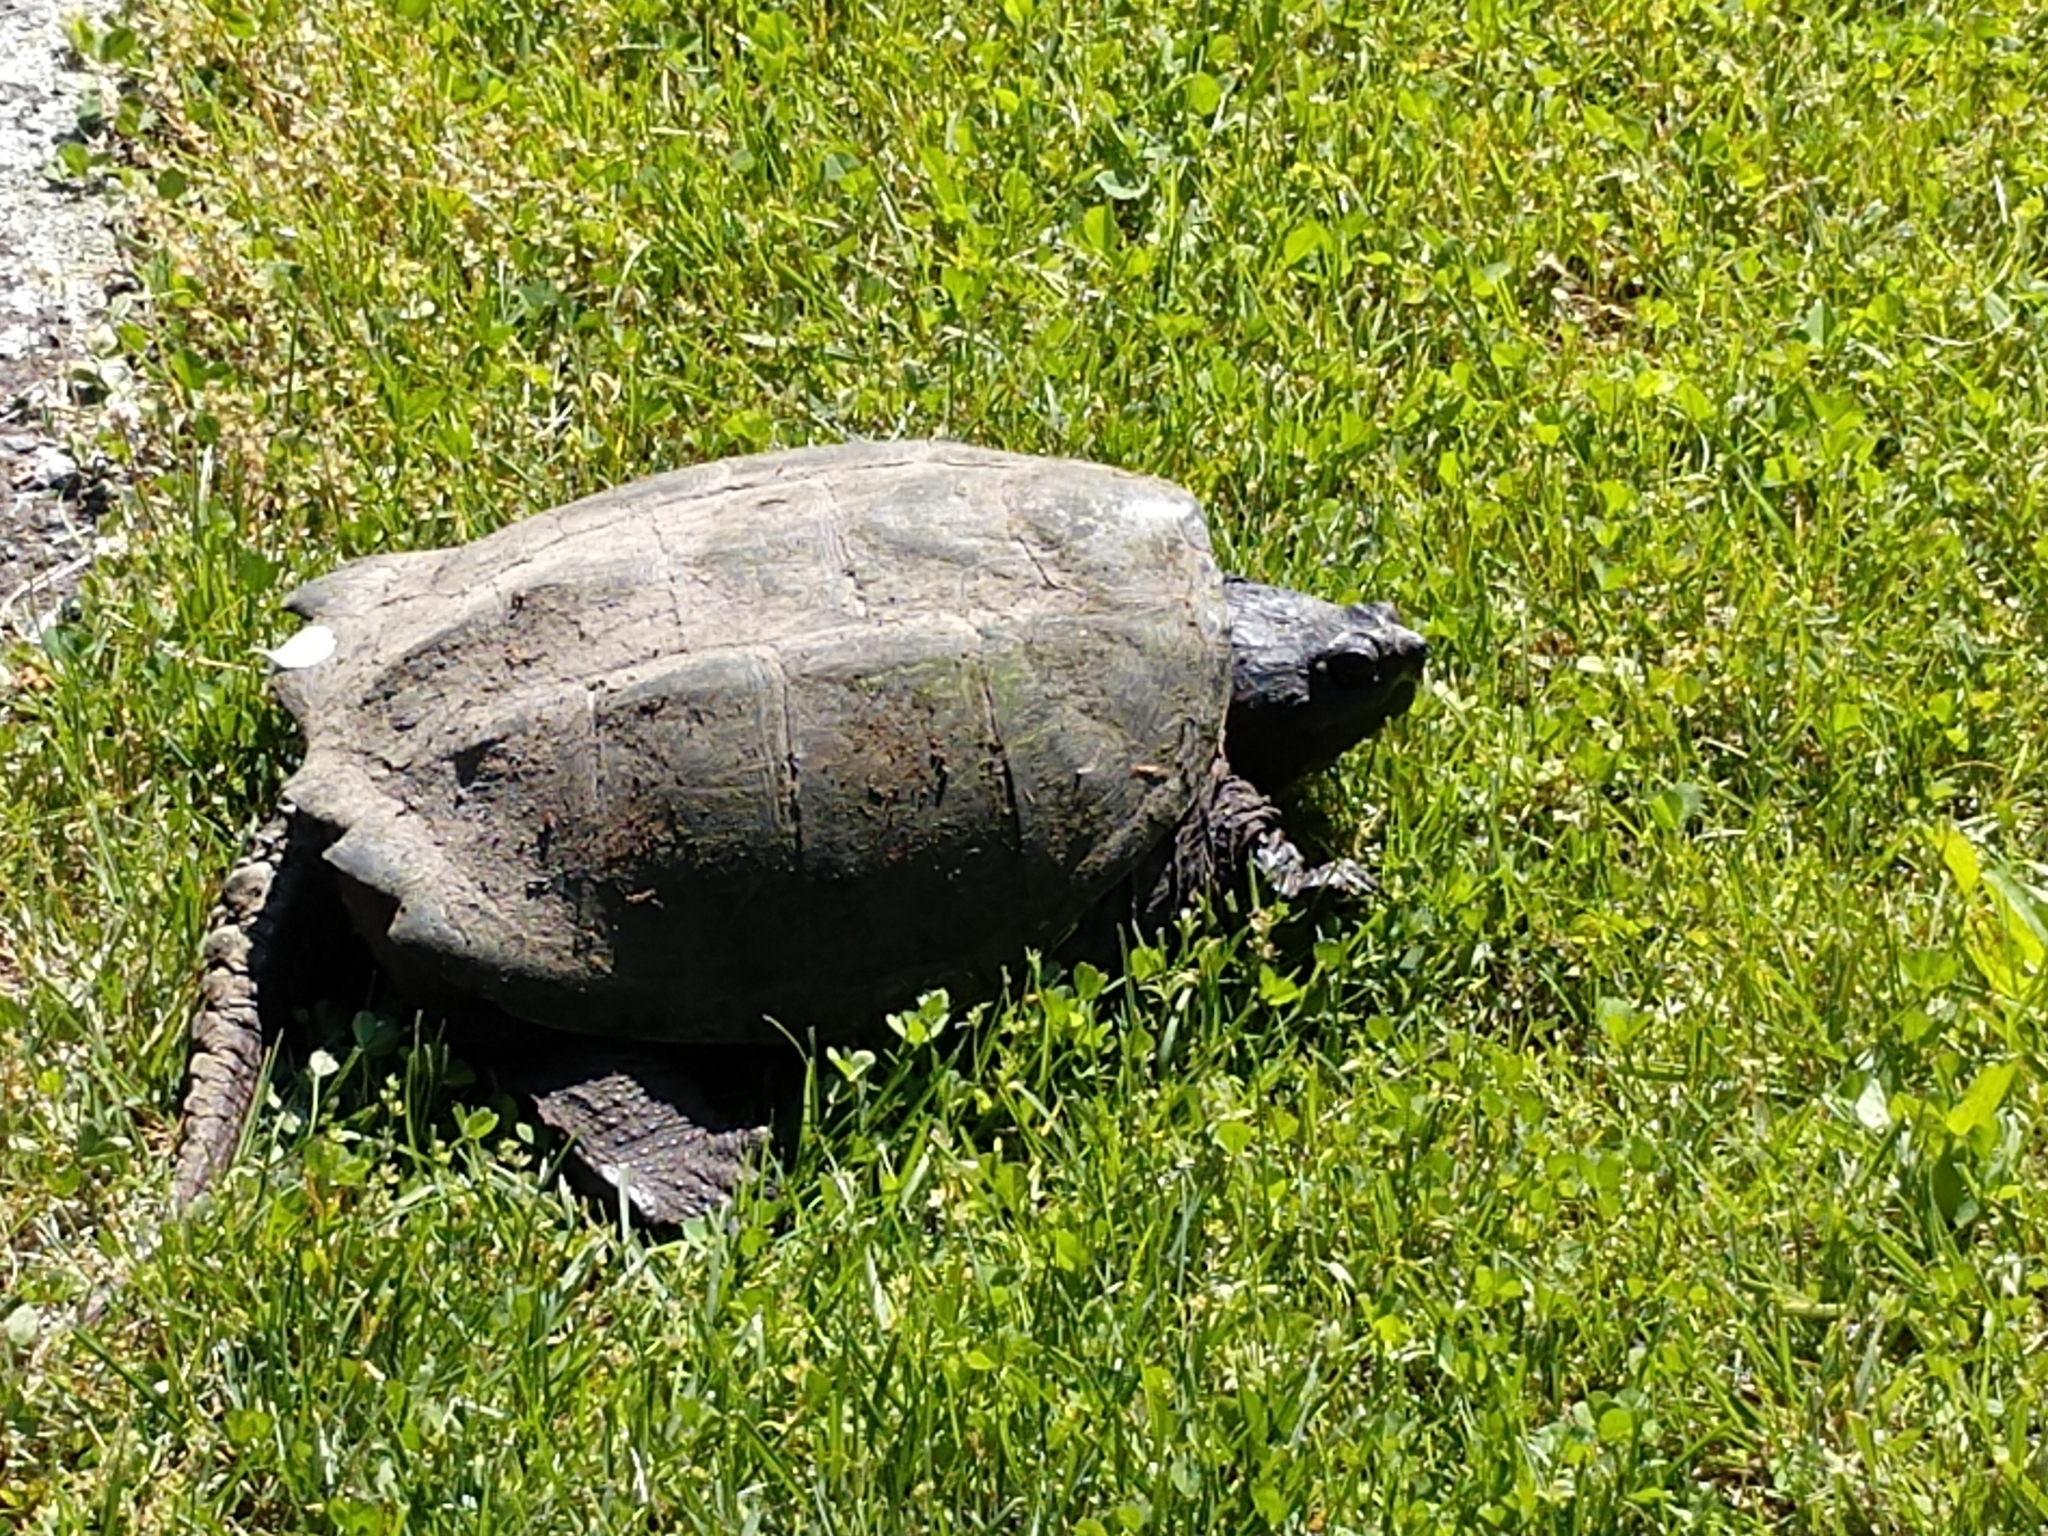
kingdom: Animalia
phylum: Chordata
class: Testudines
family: Chelydridae
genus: Chelydra
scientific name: Chelydra serpentina
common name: Common snapping turtle
